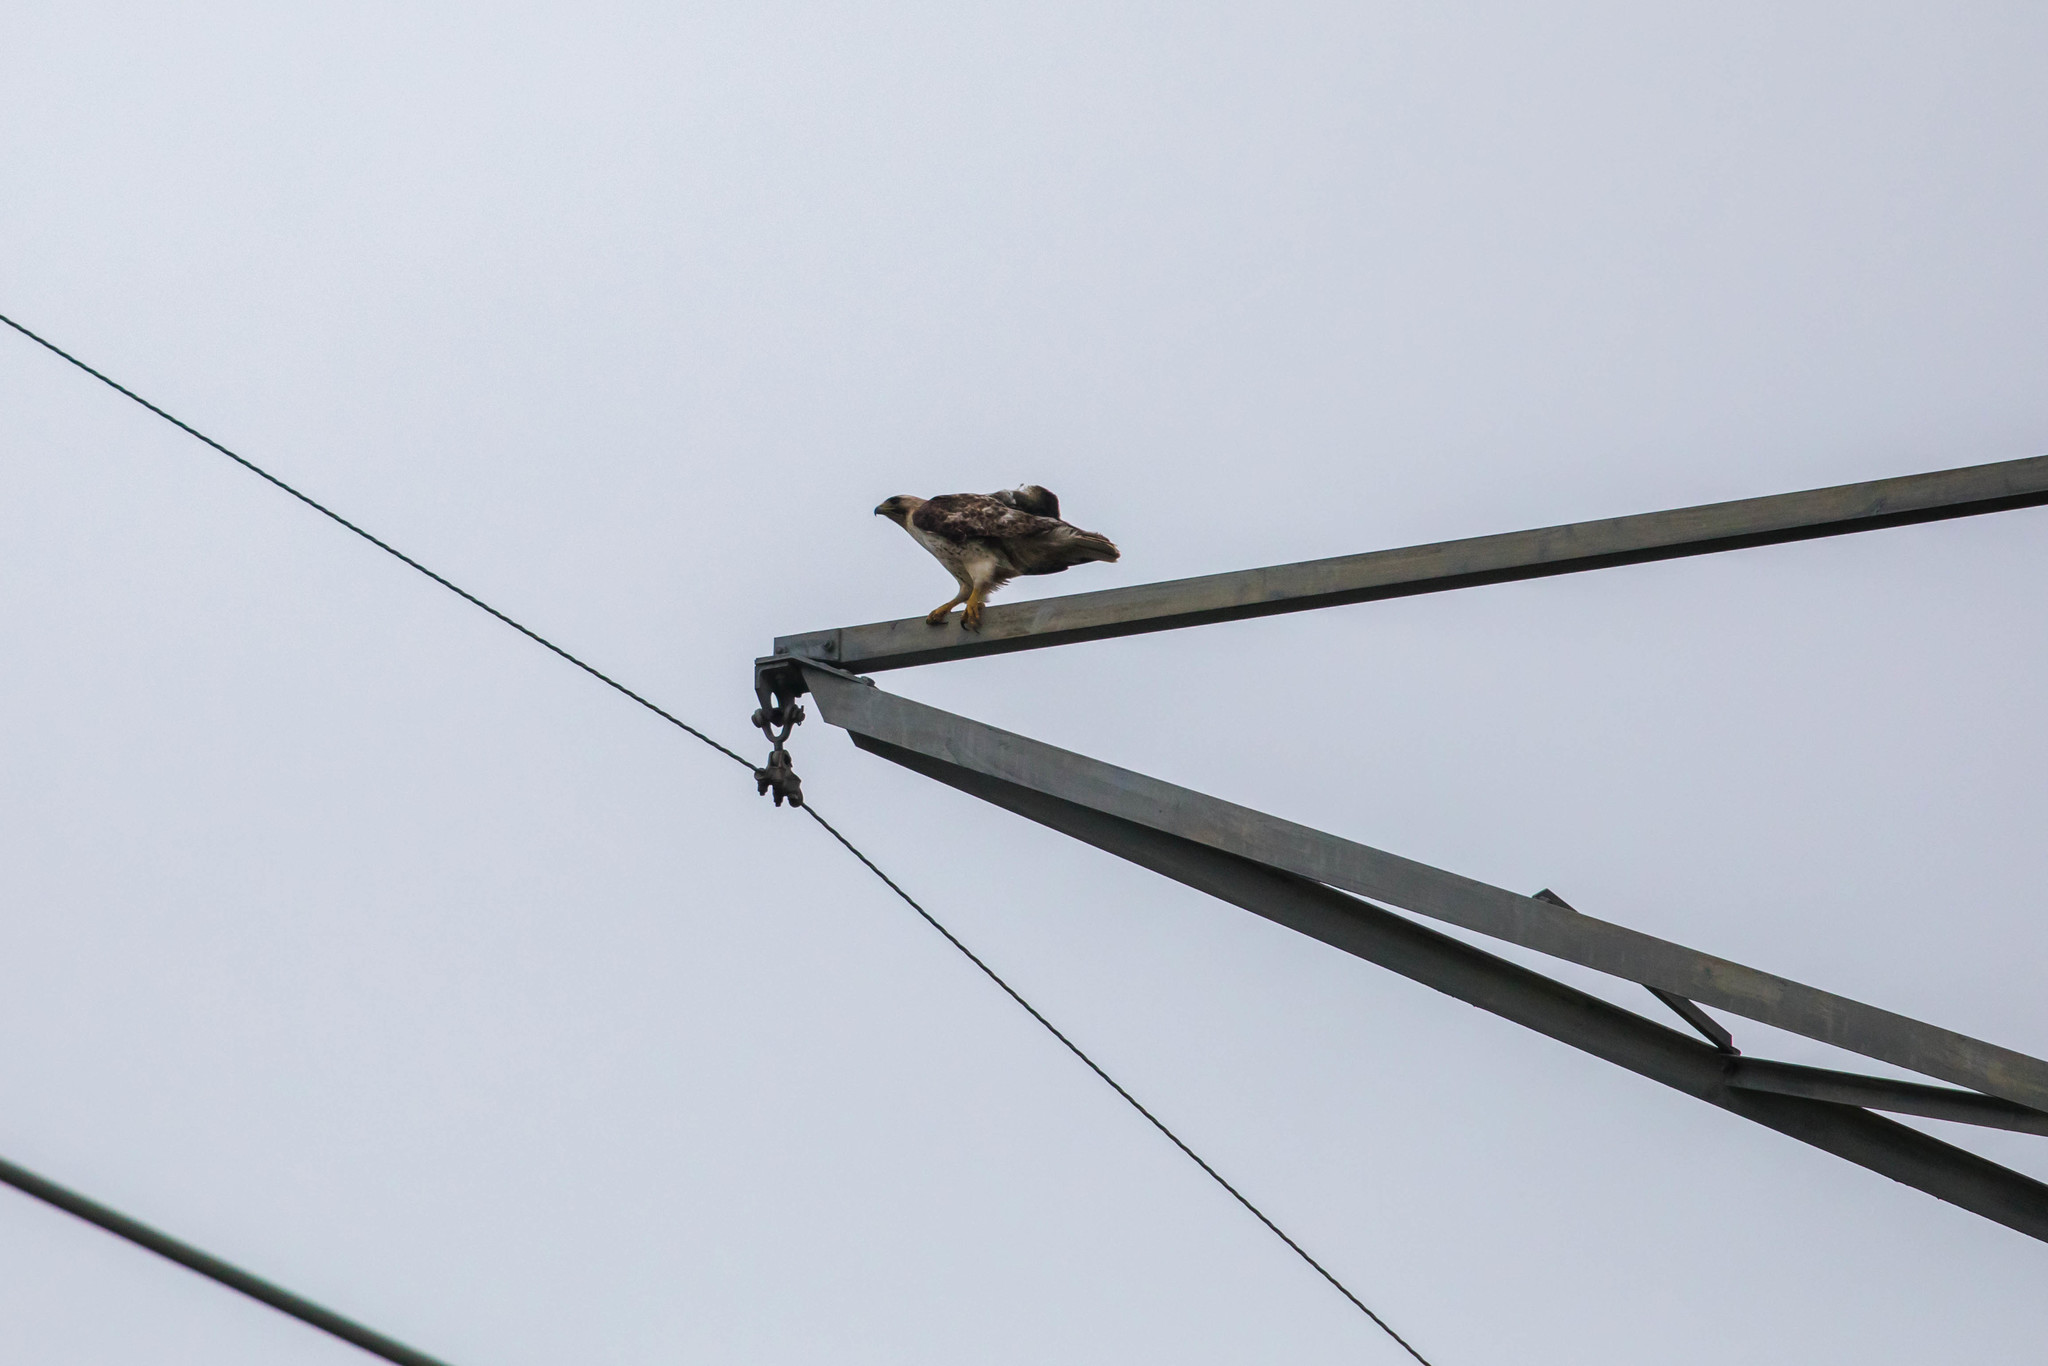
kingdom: Animalia
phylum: Chordata
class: Aves
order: Accipitriformes
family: Accipitridae
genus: Buteo
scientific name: Buteo jamaicensis
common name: Red-tailed hawk
